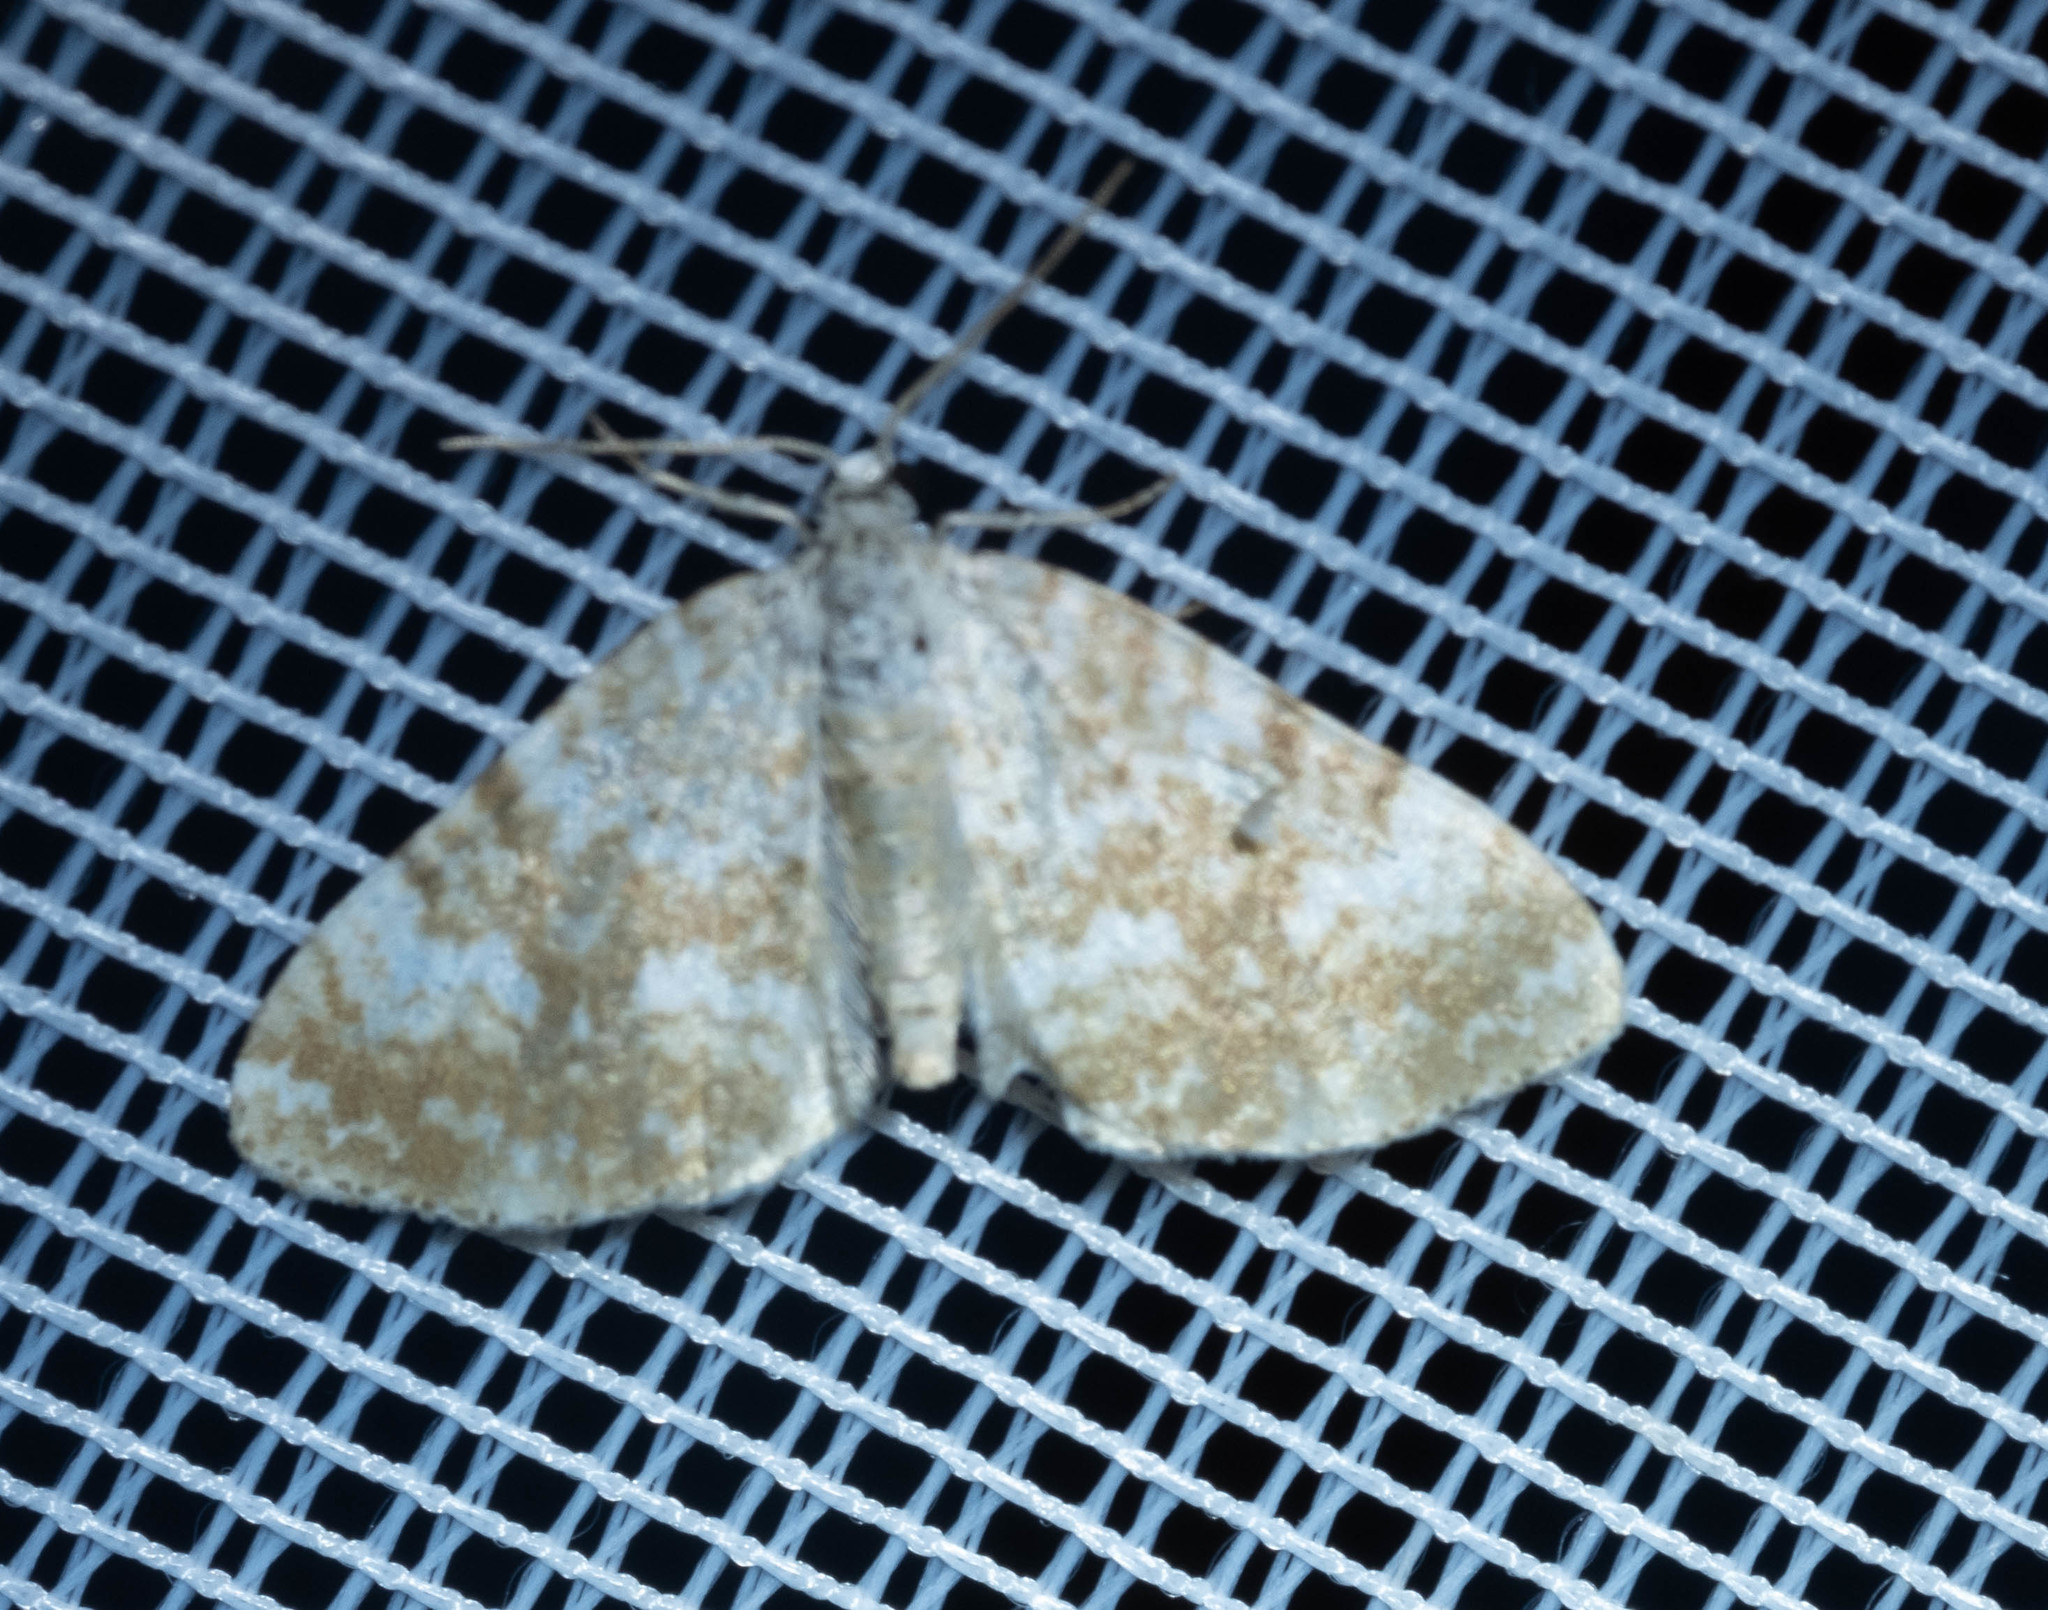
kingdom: Animalia
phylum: Arthropoda
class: Insecta
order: Lepidoptera
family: Geometridae
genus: Perizoma
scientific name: Perizoma flavofasciata
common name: Sandy carpet
